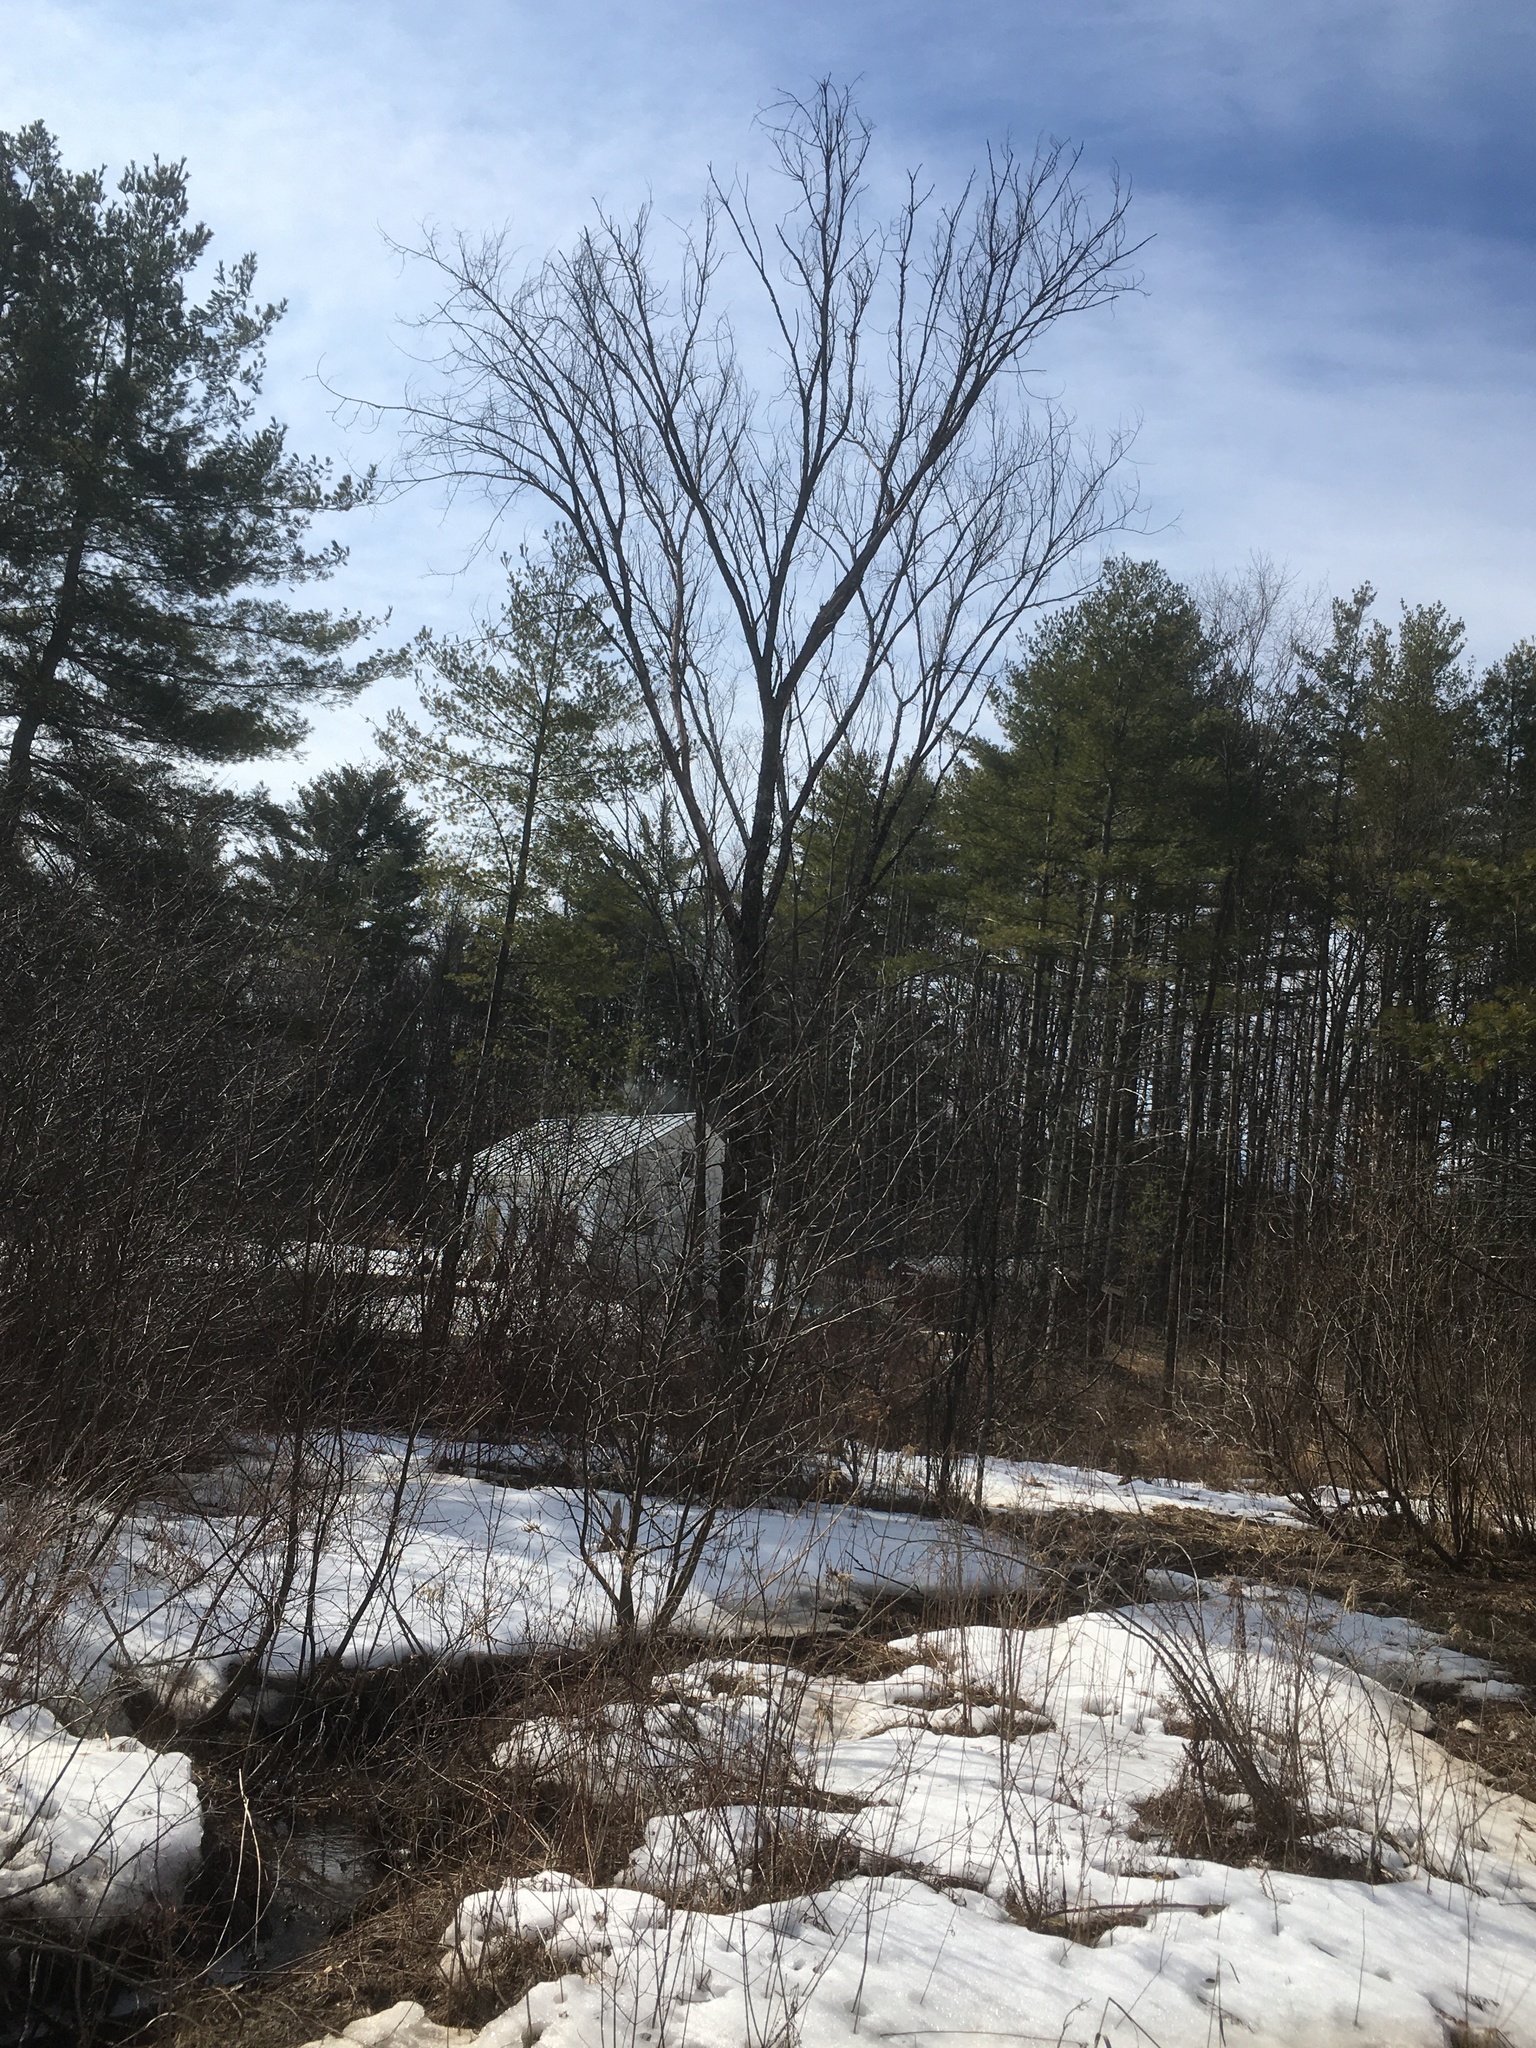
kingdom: Plantae
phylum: Tracheophyta
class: Magnoliopsida
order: Rosales
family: Ulmaceae
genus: Ulmus
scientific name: Ulmus americana
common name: American elm
